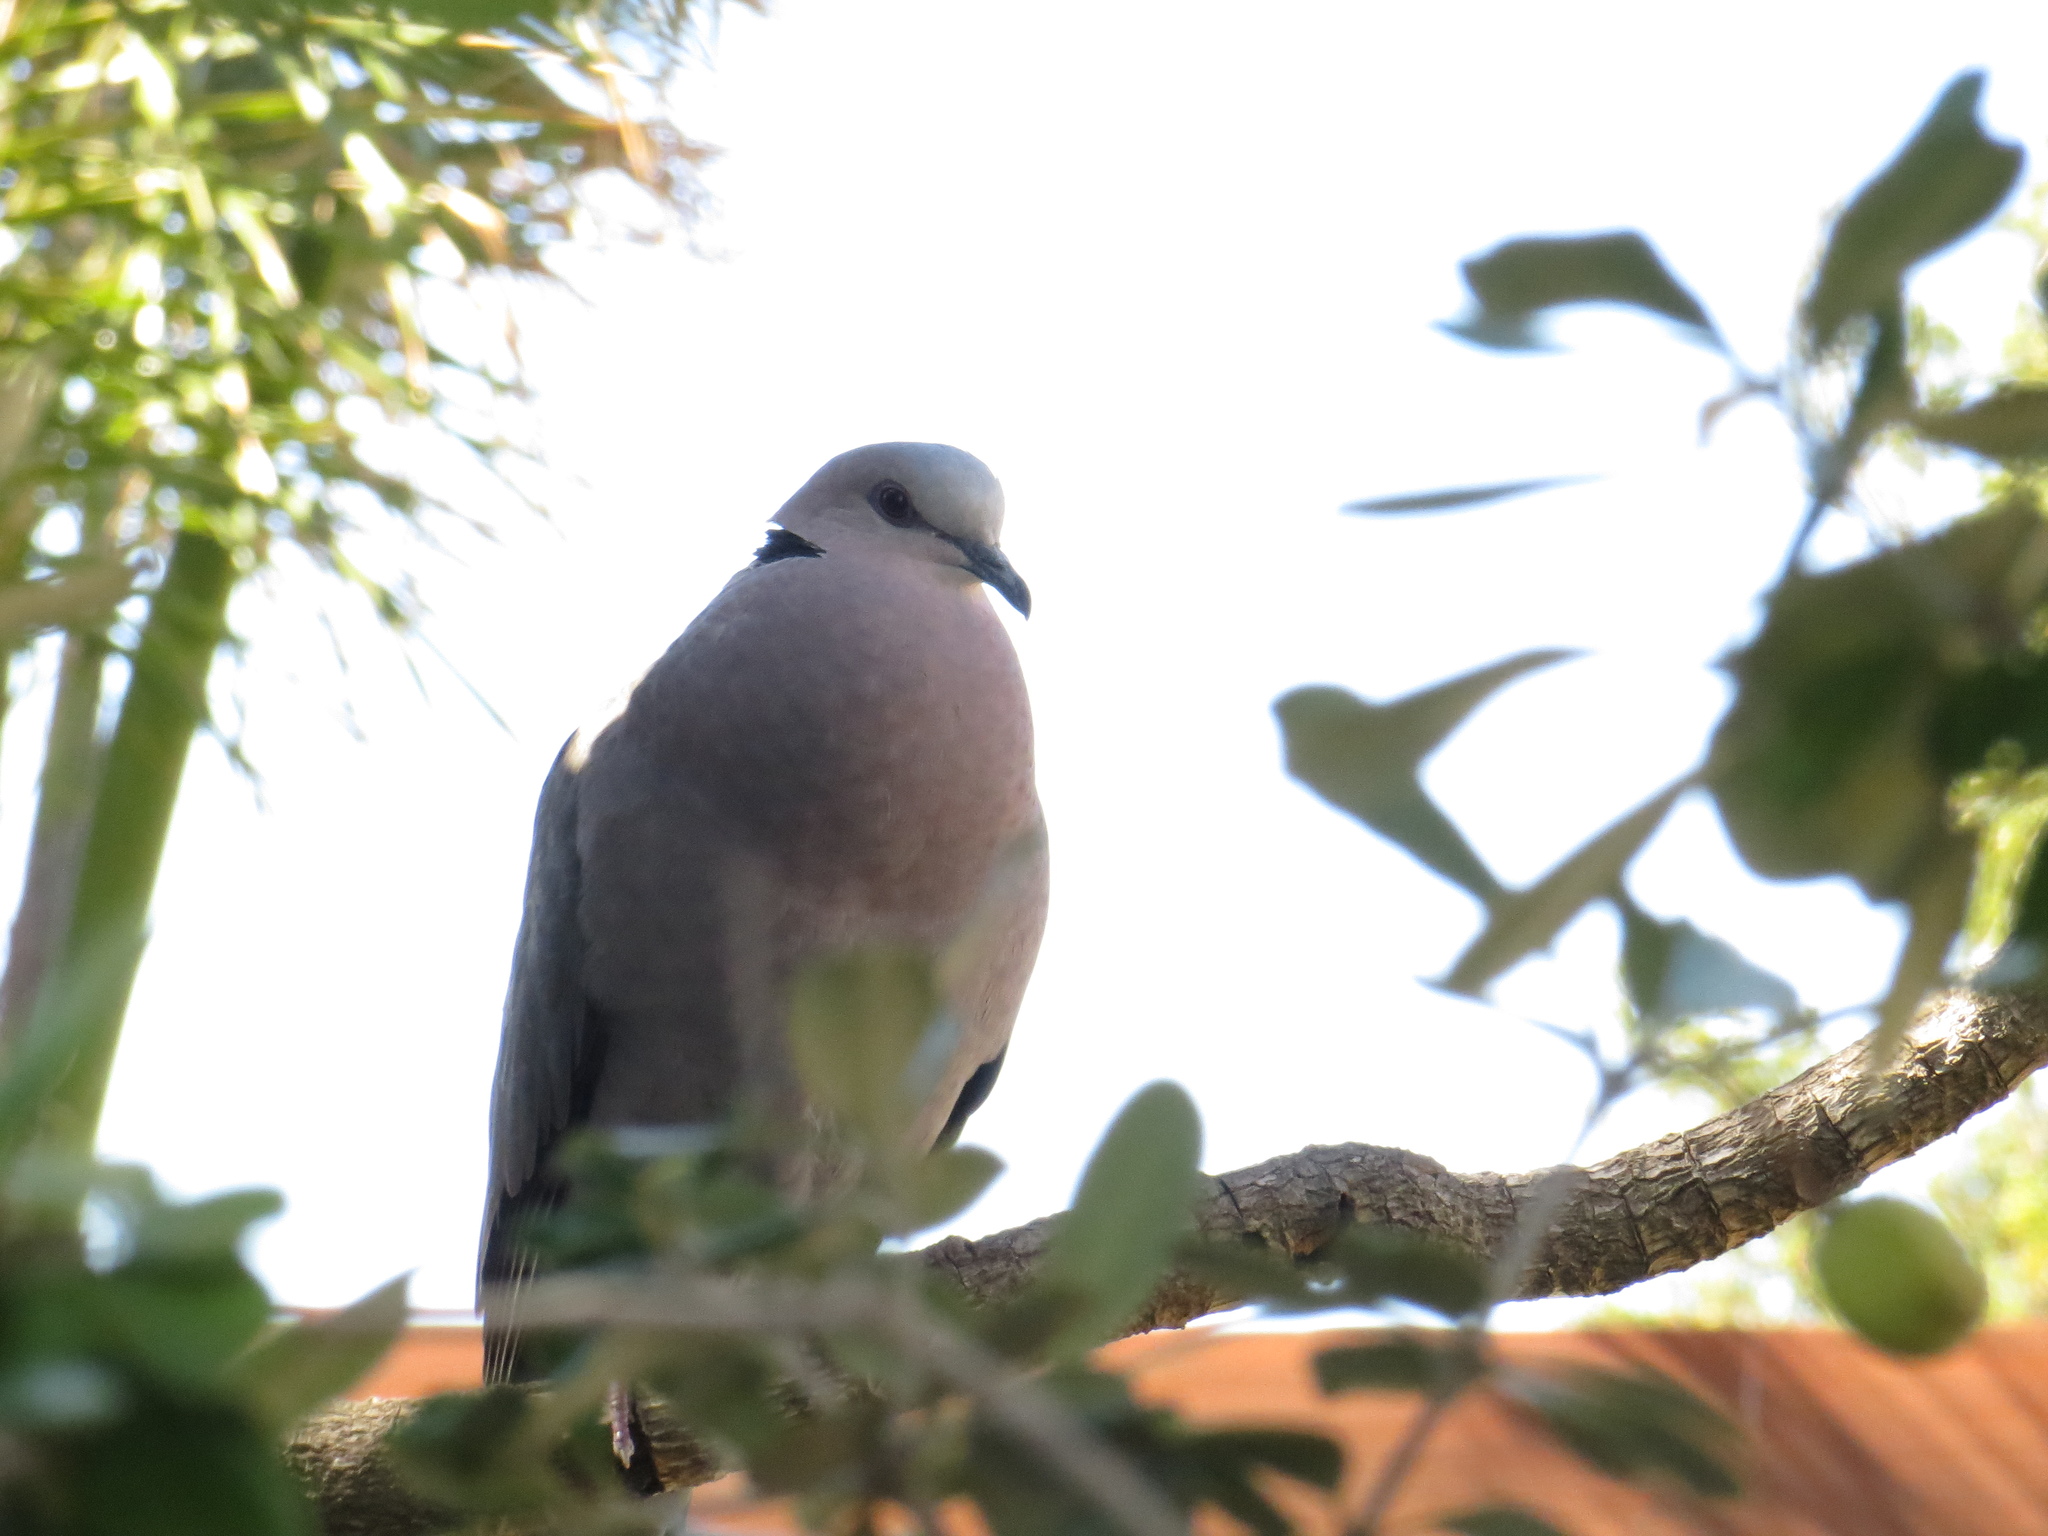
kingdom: Animalia
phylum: Chordata
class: Aves
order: Columbiformes
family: Columbidae
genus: Streptopelia
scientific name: Streptopelia semitorquata
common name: Red-eyed dove
